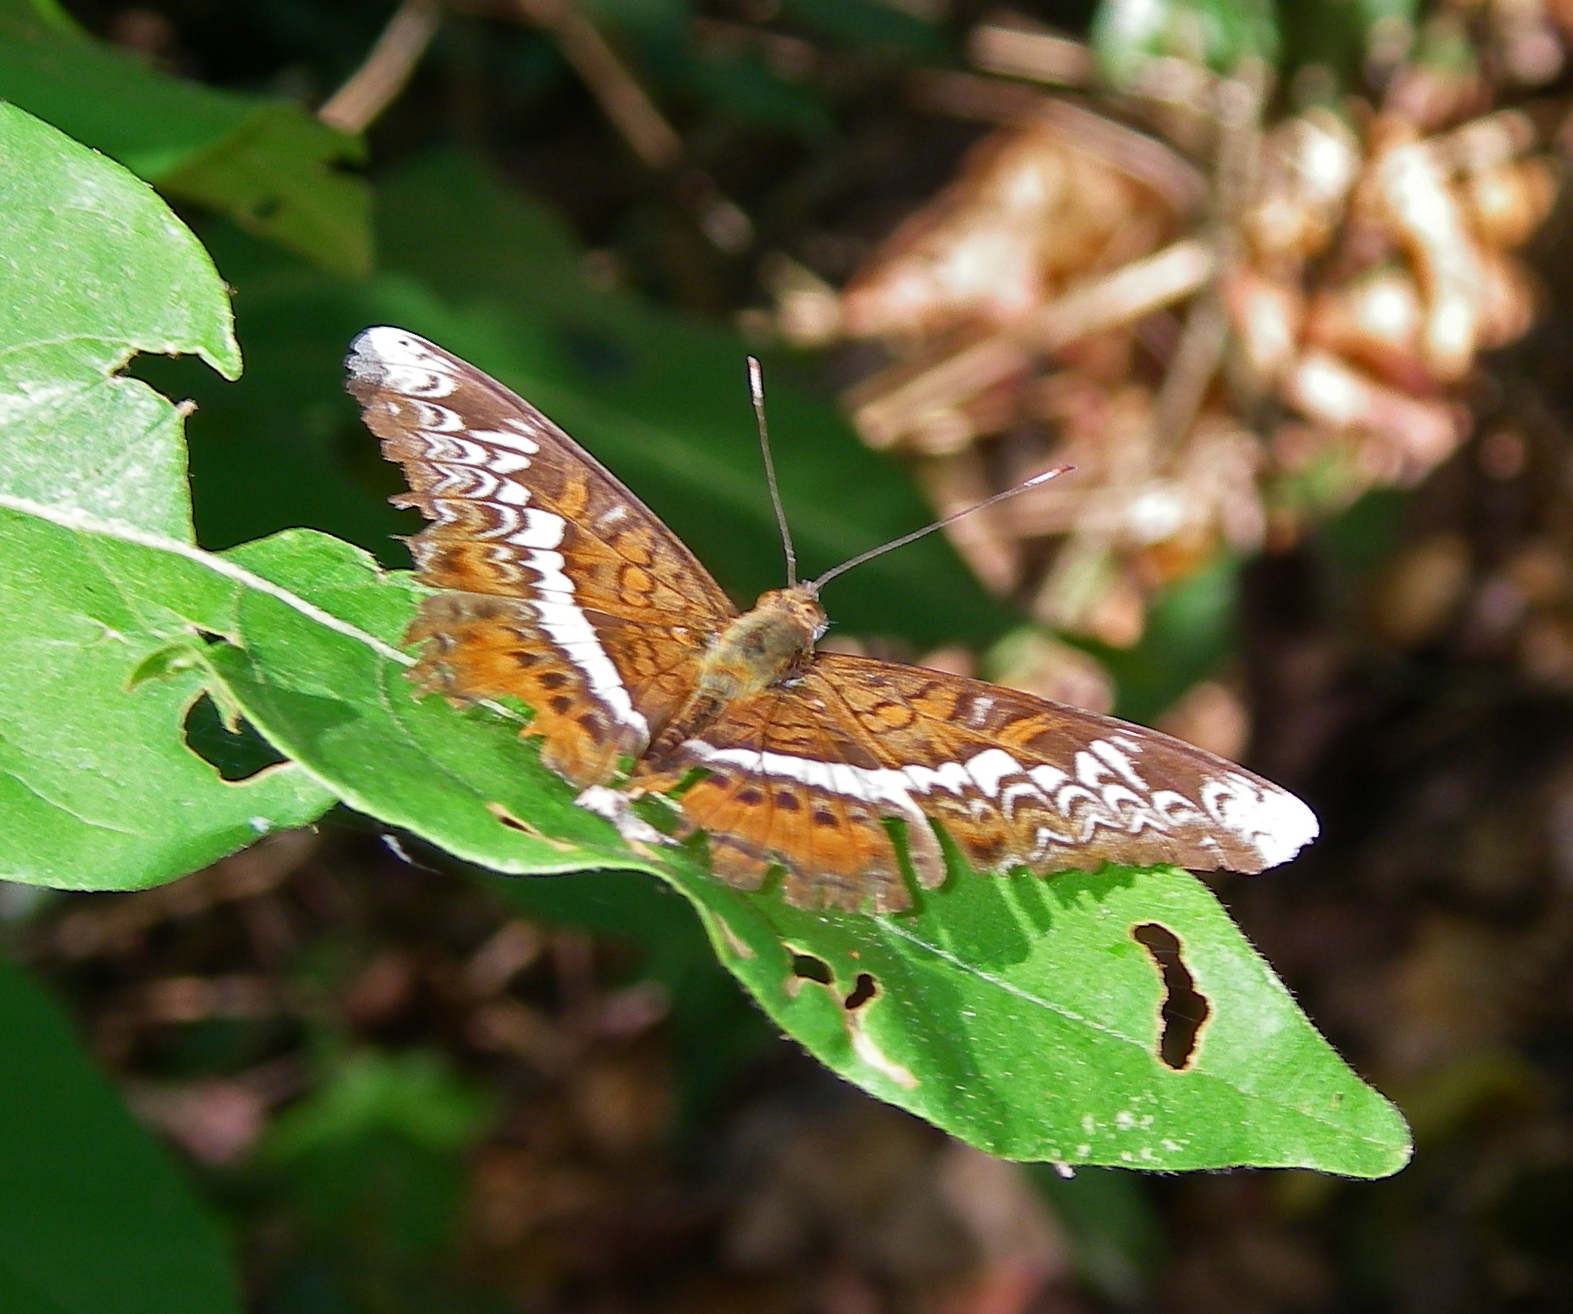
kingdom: Animalia
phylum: Arthropoda
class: Insecta
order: Lepidoptera
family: Nymphalidae
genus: Lebadea
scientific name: Lebadea martha
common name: Knight
